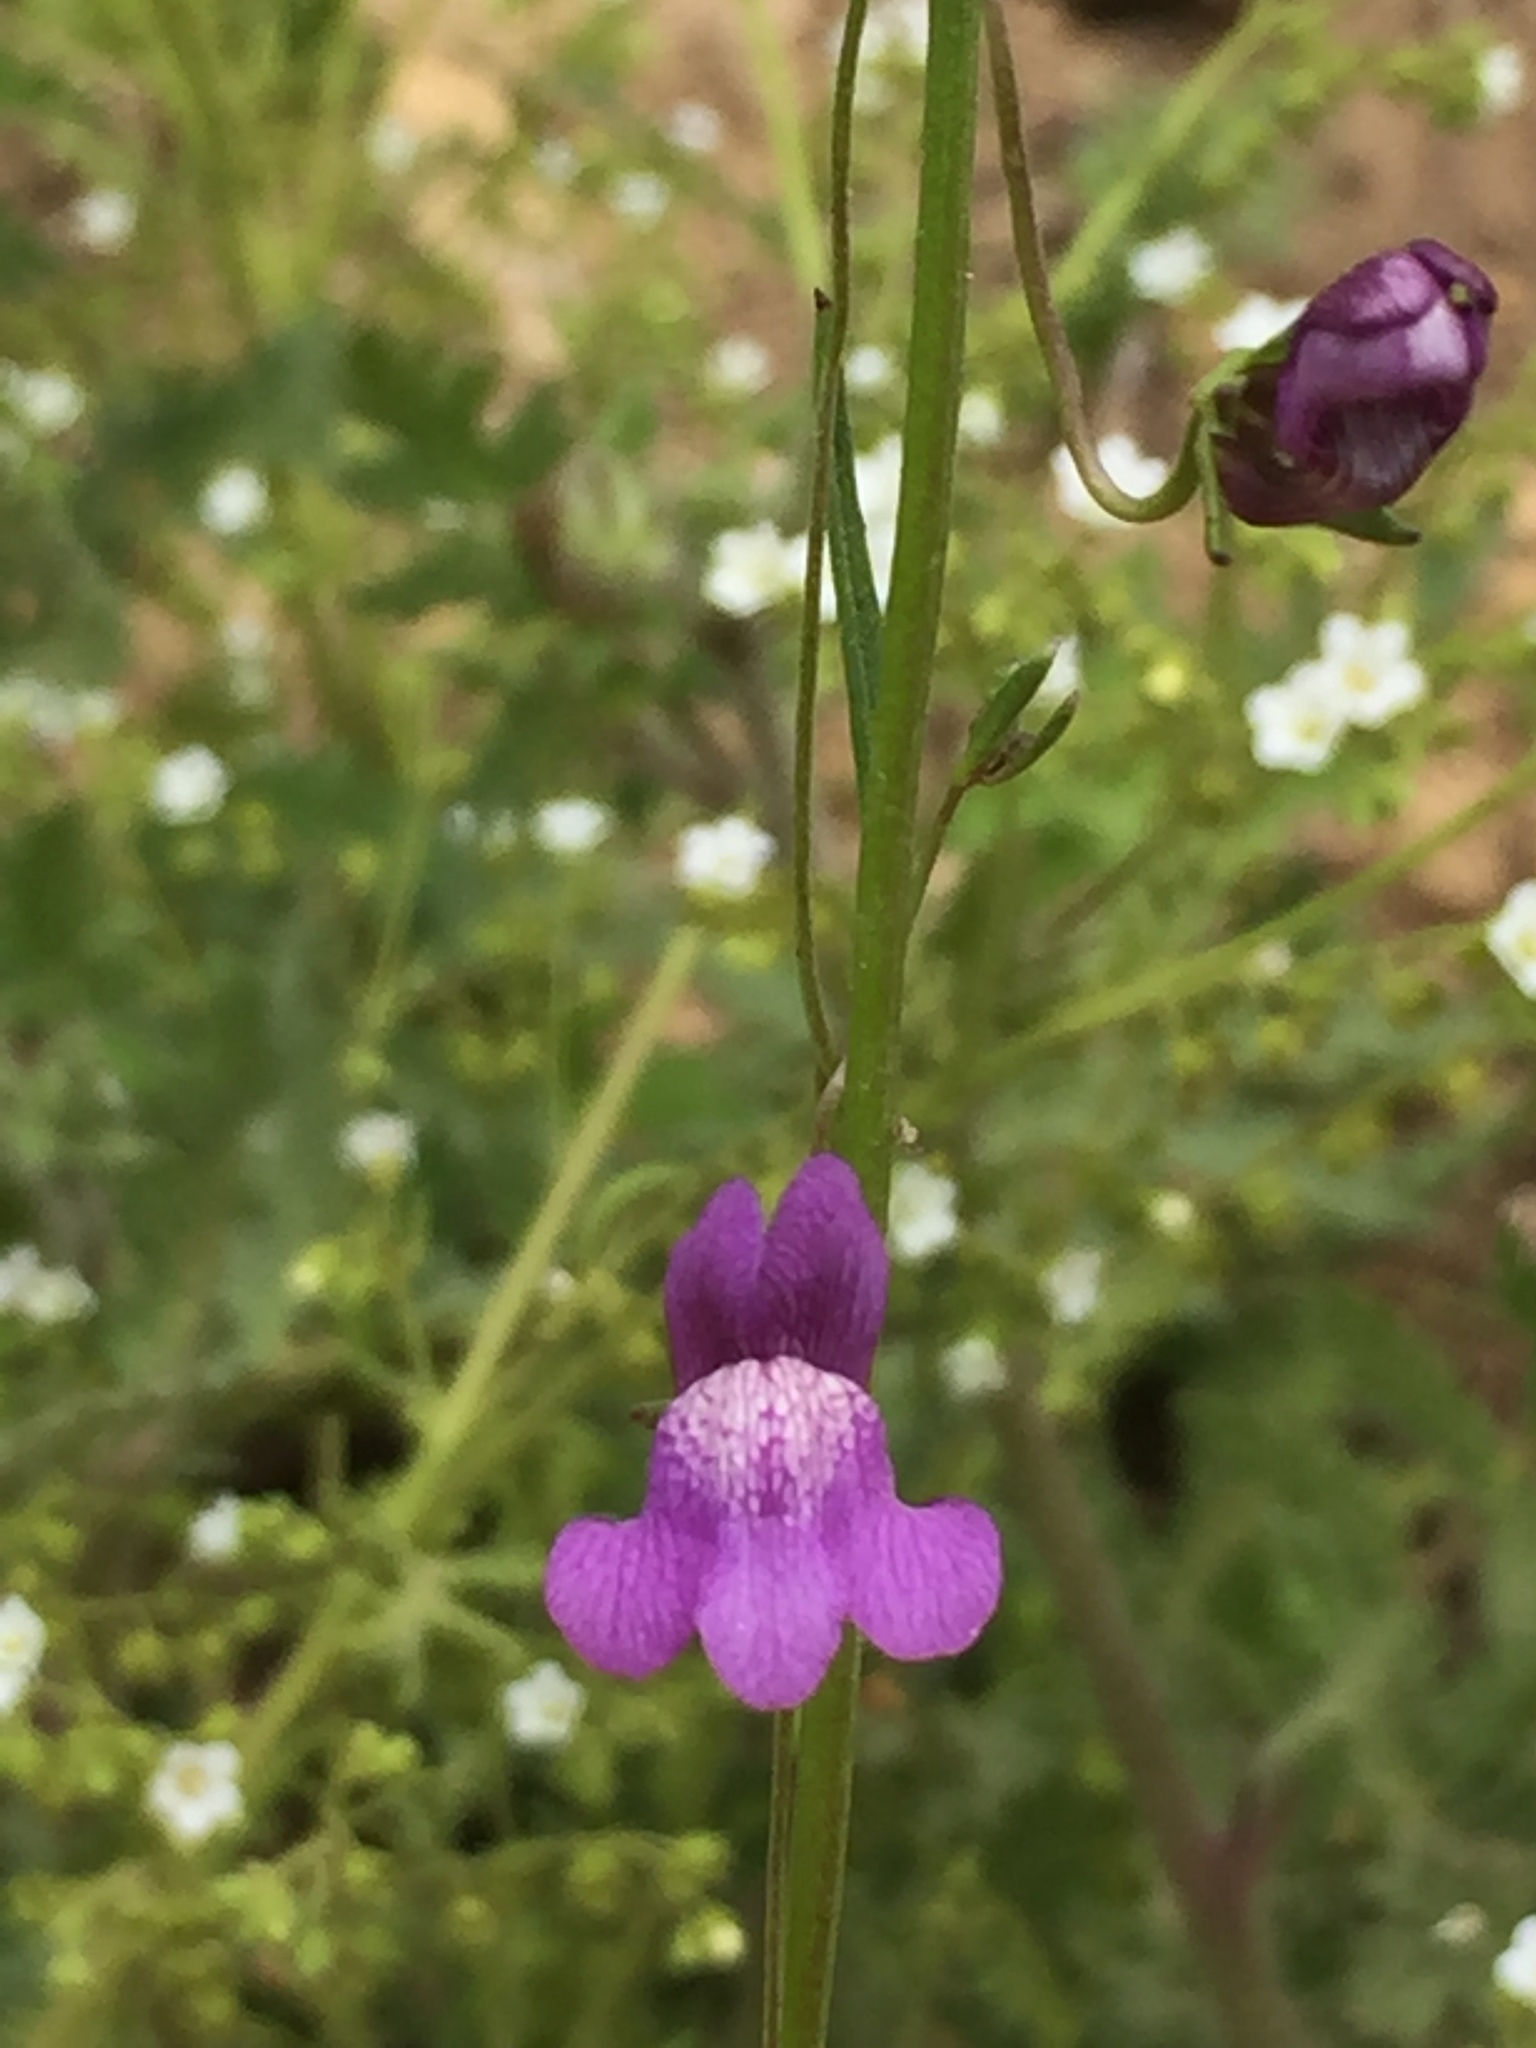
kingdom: Plantae
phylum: Tracheophyta
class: Magnoliopsida
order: Lamiales
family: Plantaginaceae
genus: Neogaerrhinum
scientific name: Neogaerrhinum strictum
